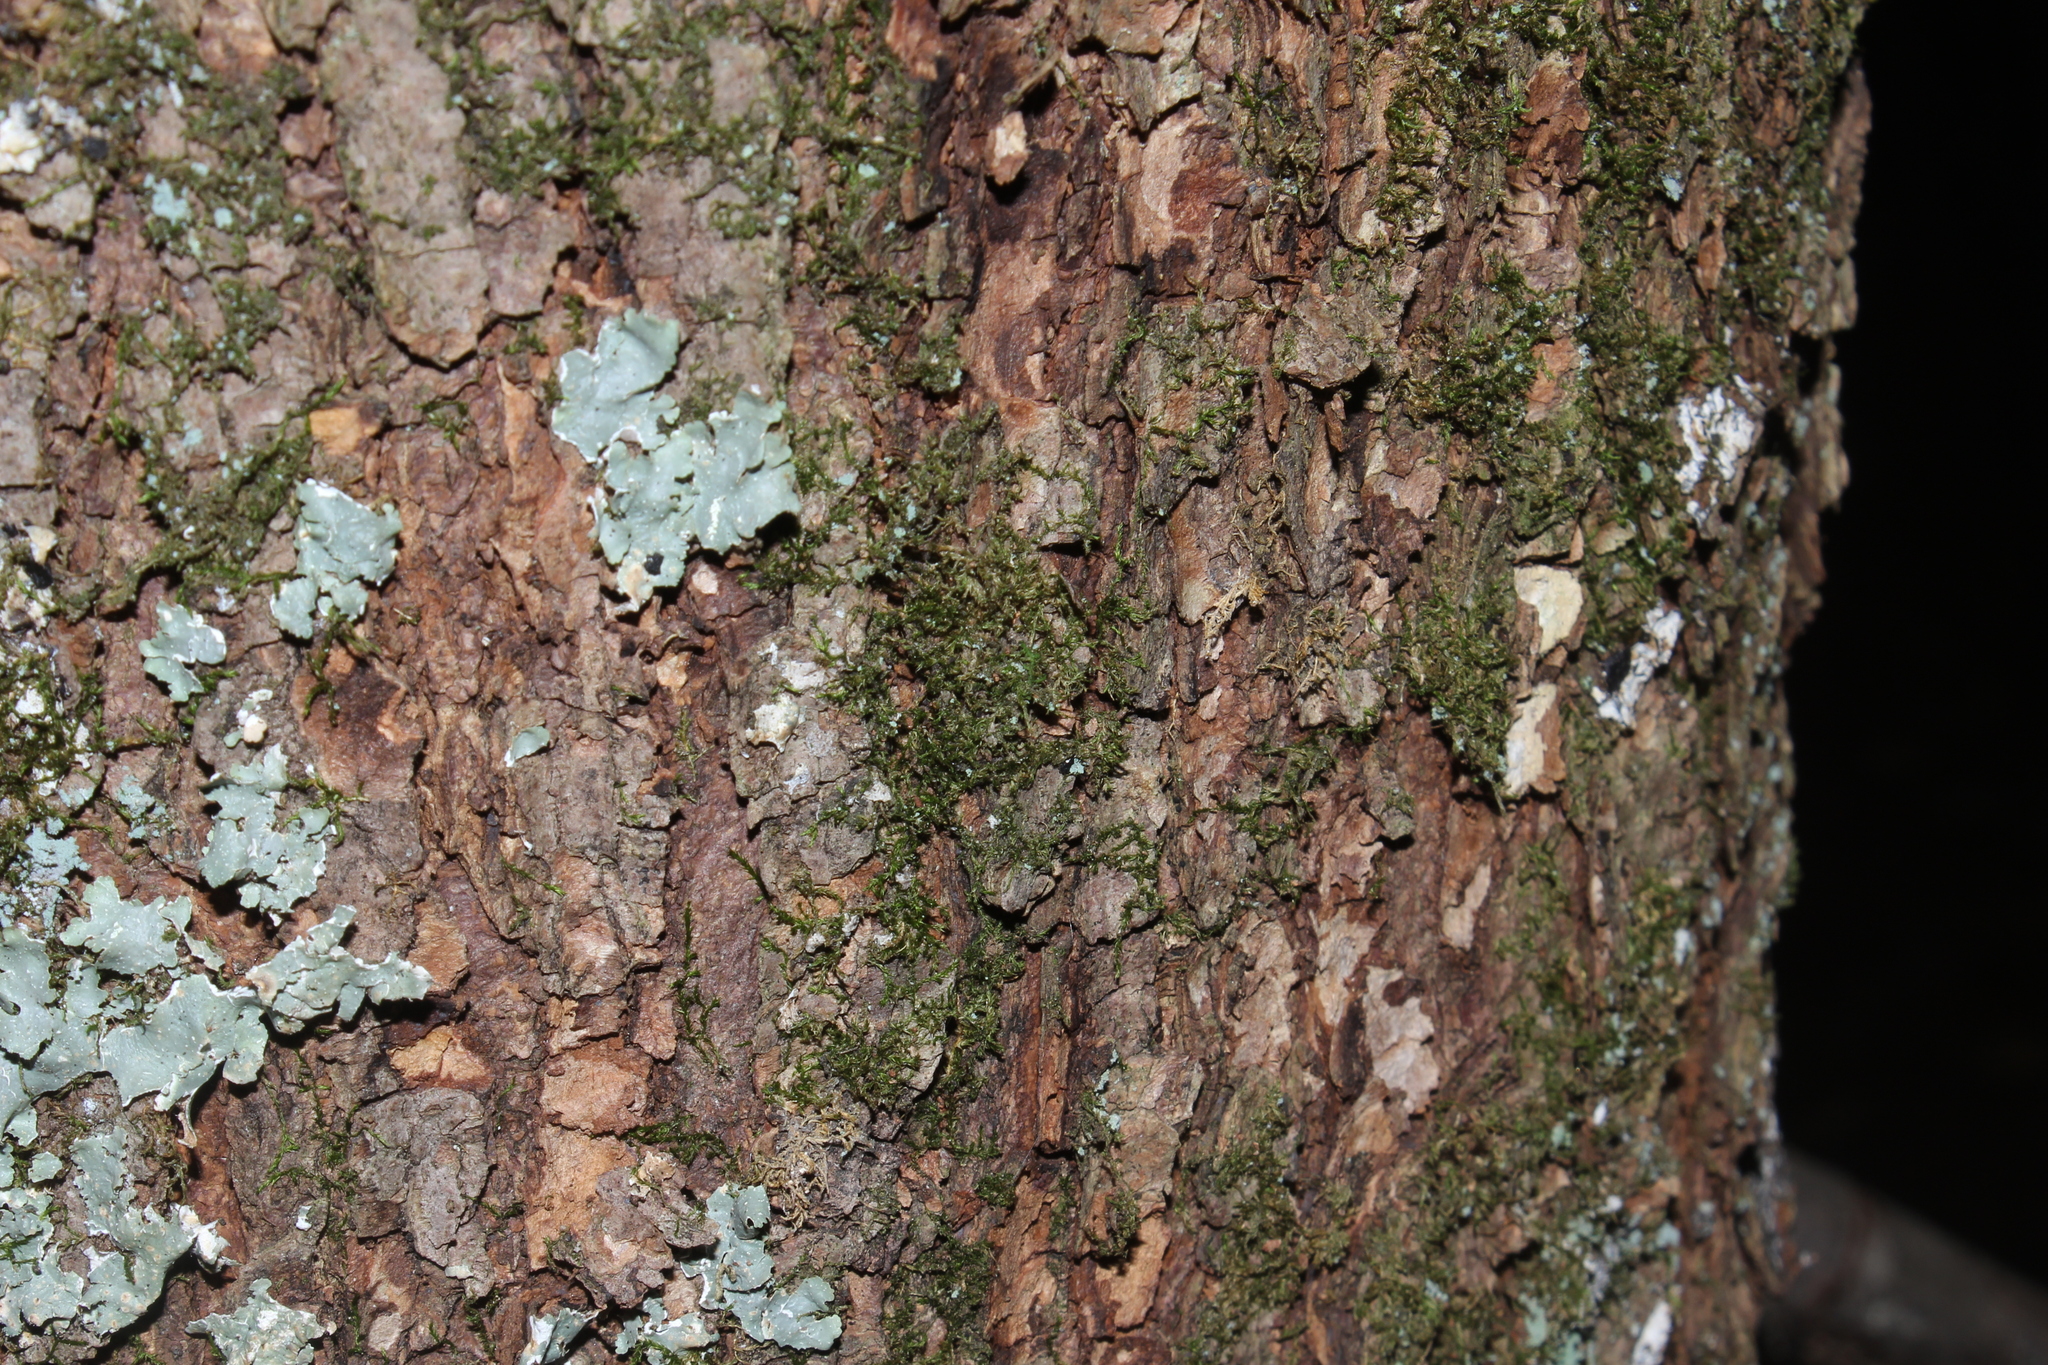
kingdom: Plantae
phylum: Tracheophyta
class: Pinopsida
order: Pinales
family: Pinaceae
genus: Pinus
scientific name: Pinus strobus
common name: Weymouth pine
